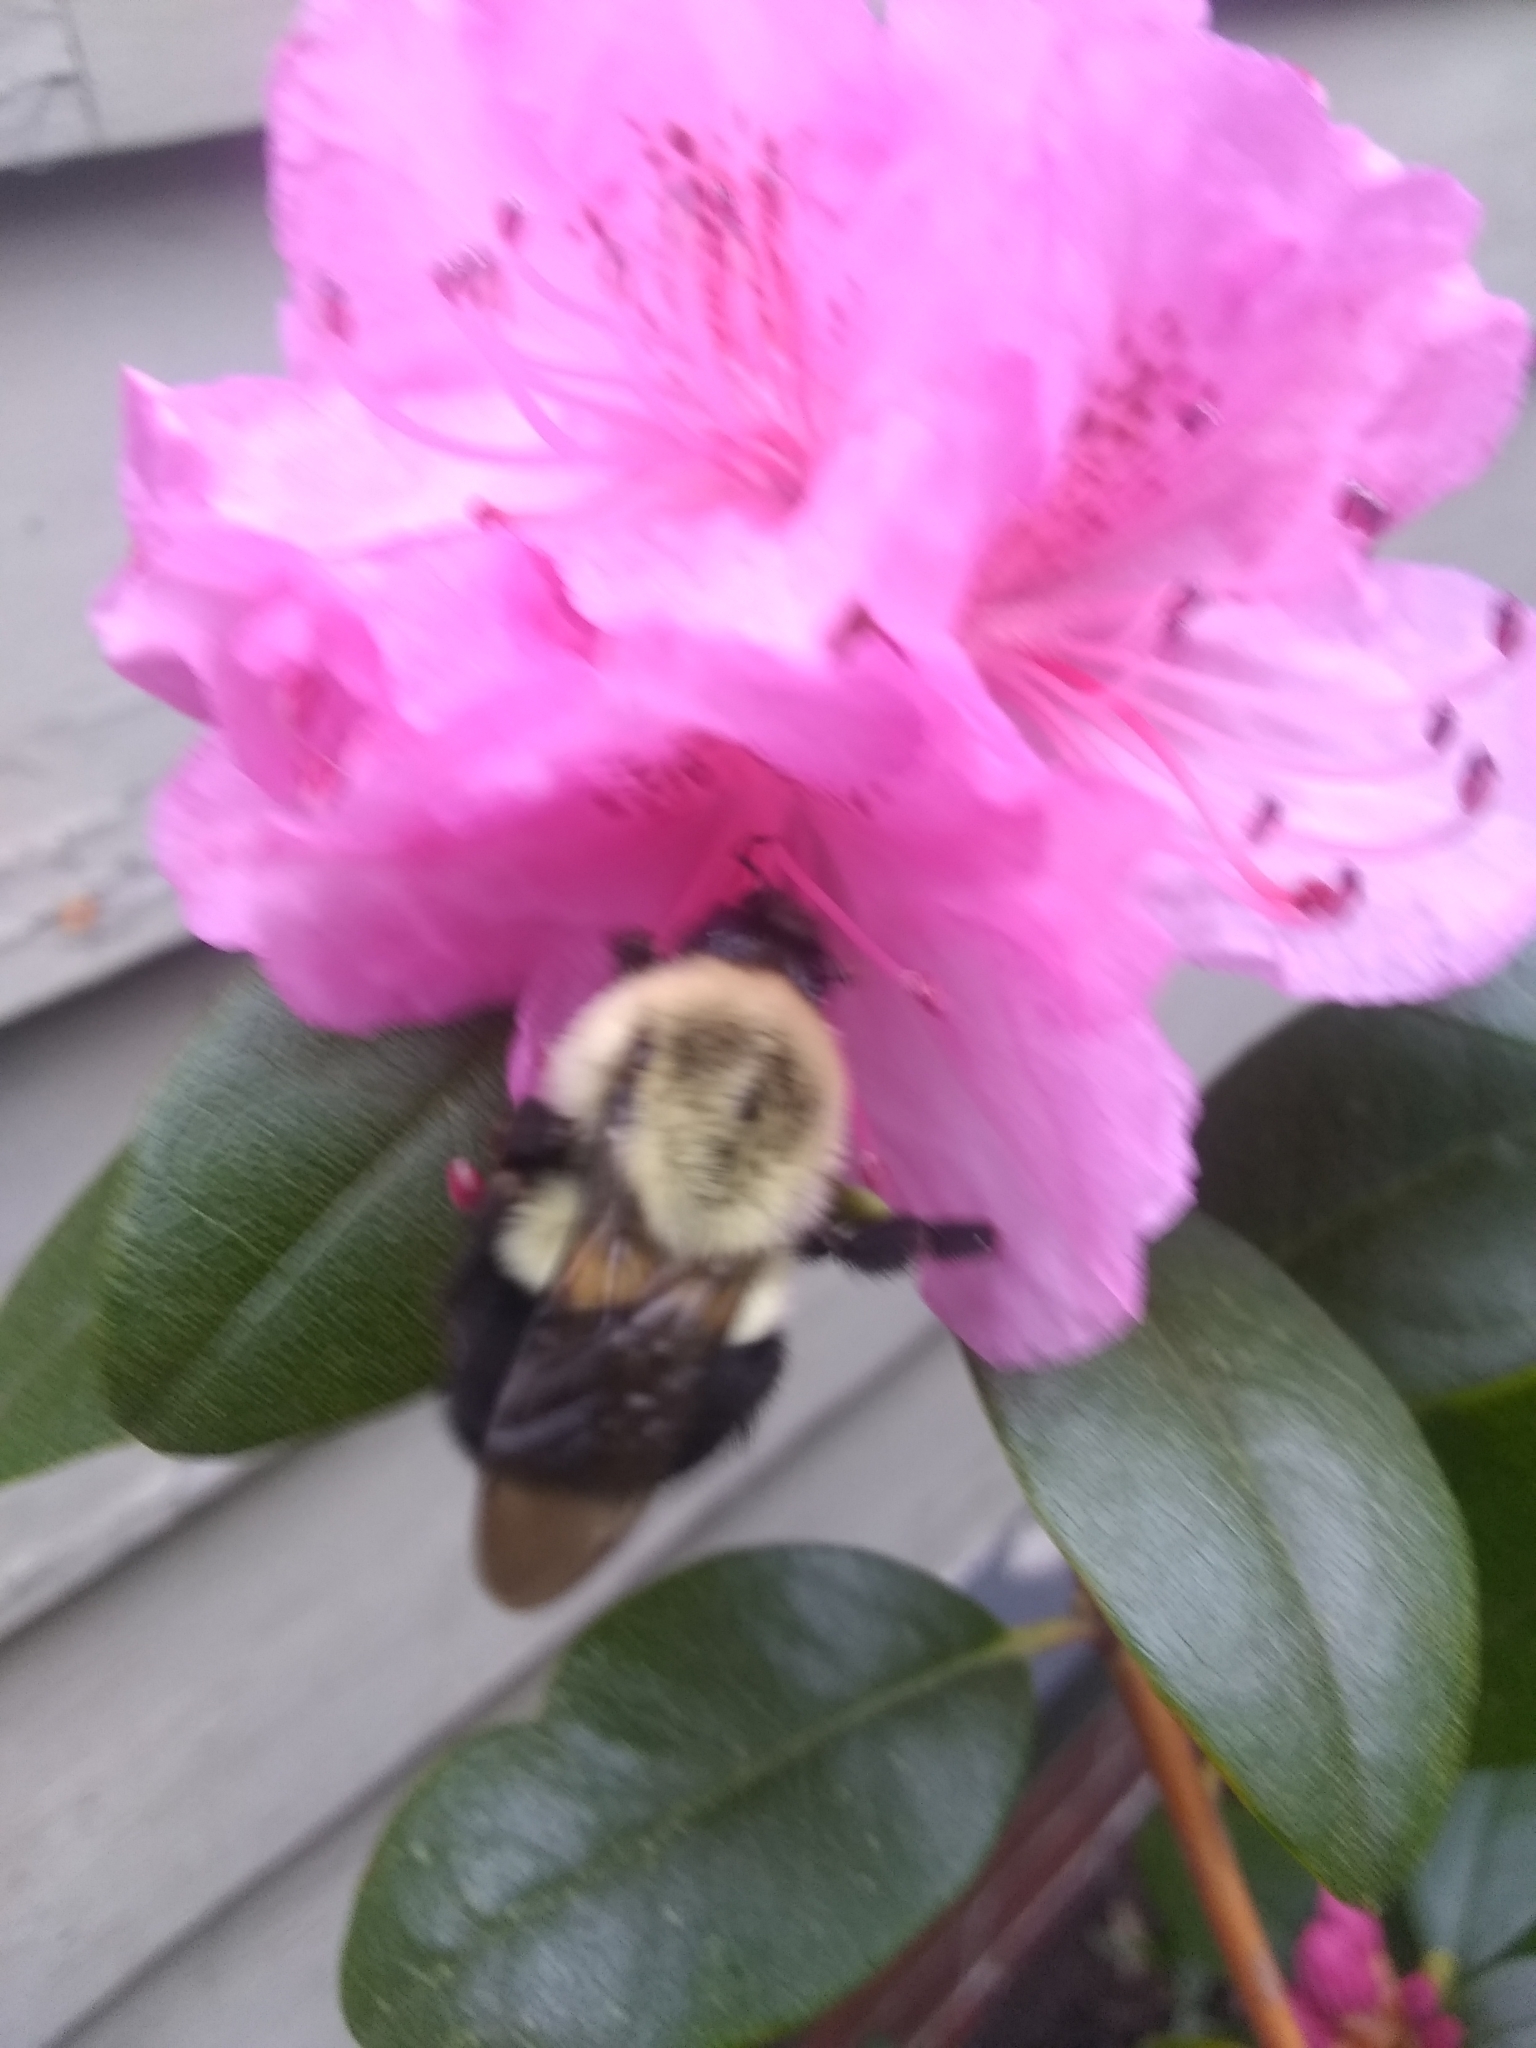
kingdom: Animalia
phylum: Arthropoda
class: Insecta
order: Hymenoptera
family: Apidae
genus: Bombus
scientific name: Bombus impatiens
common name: Common eastern bumble bee
